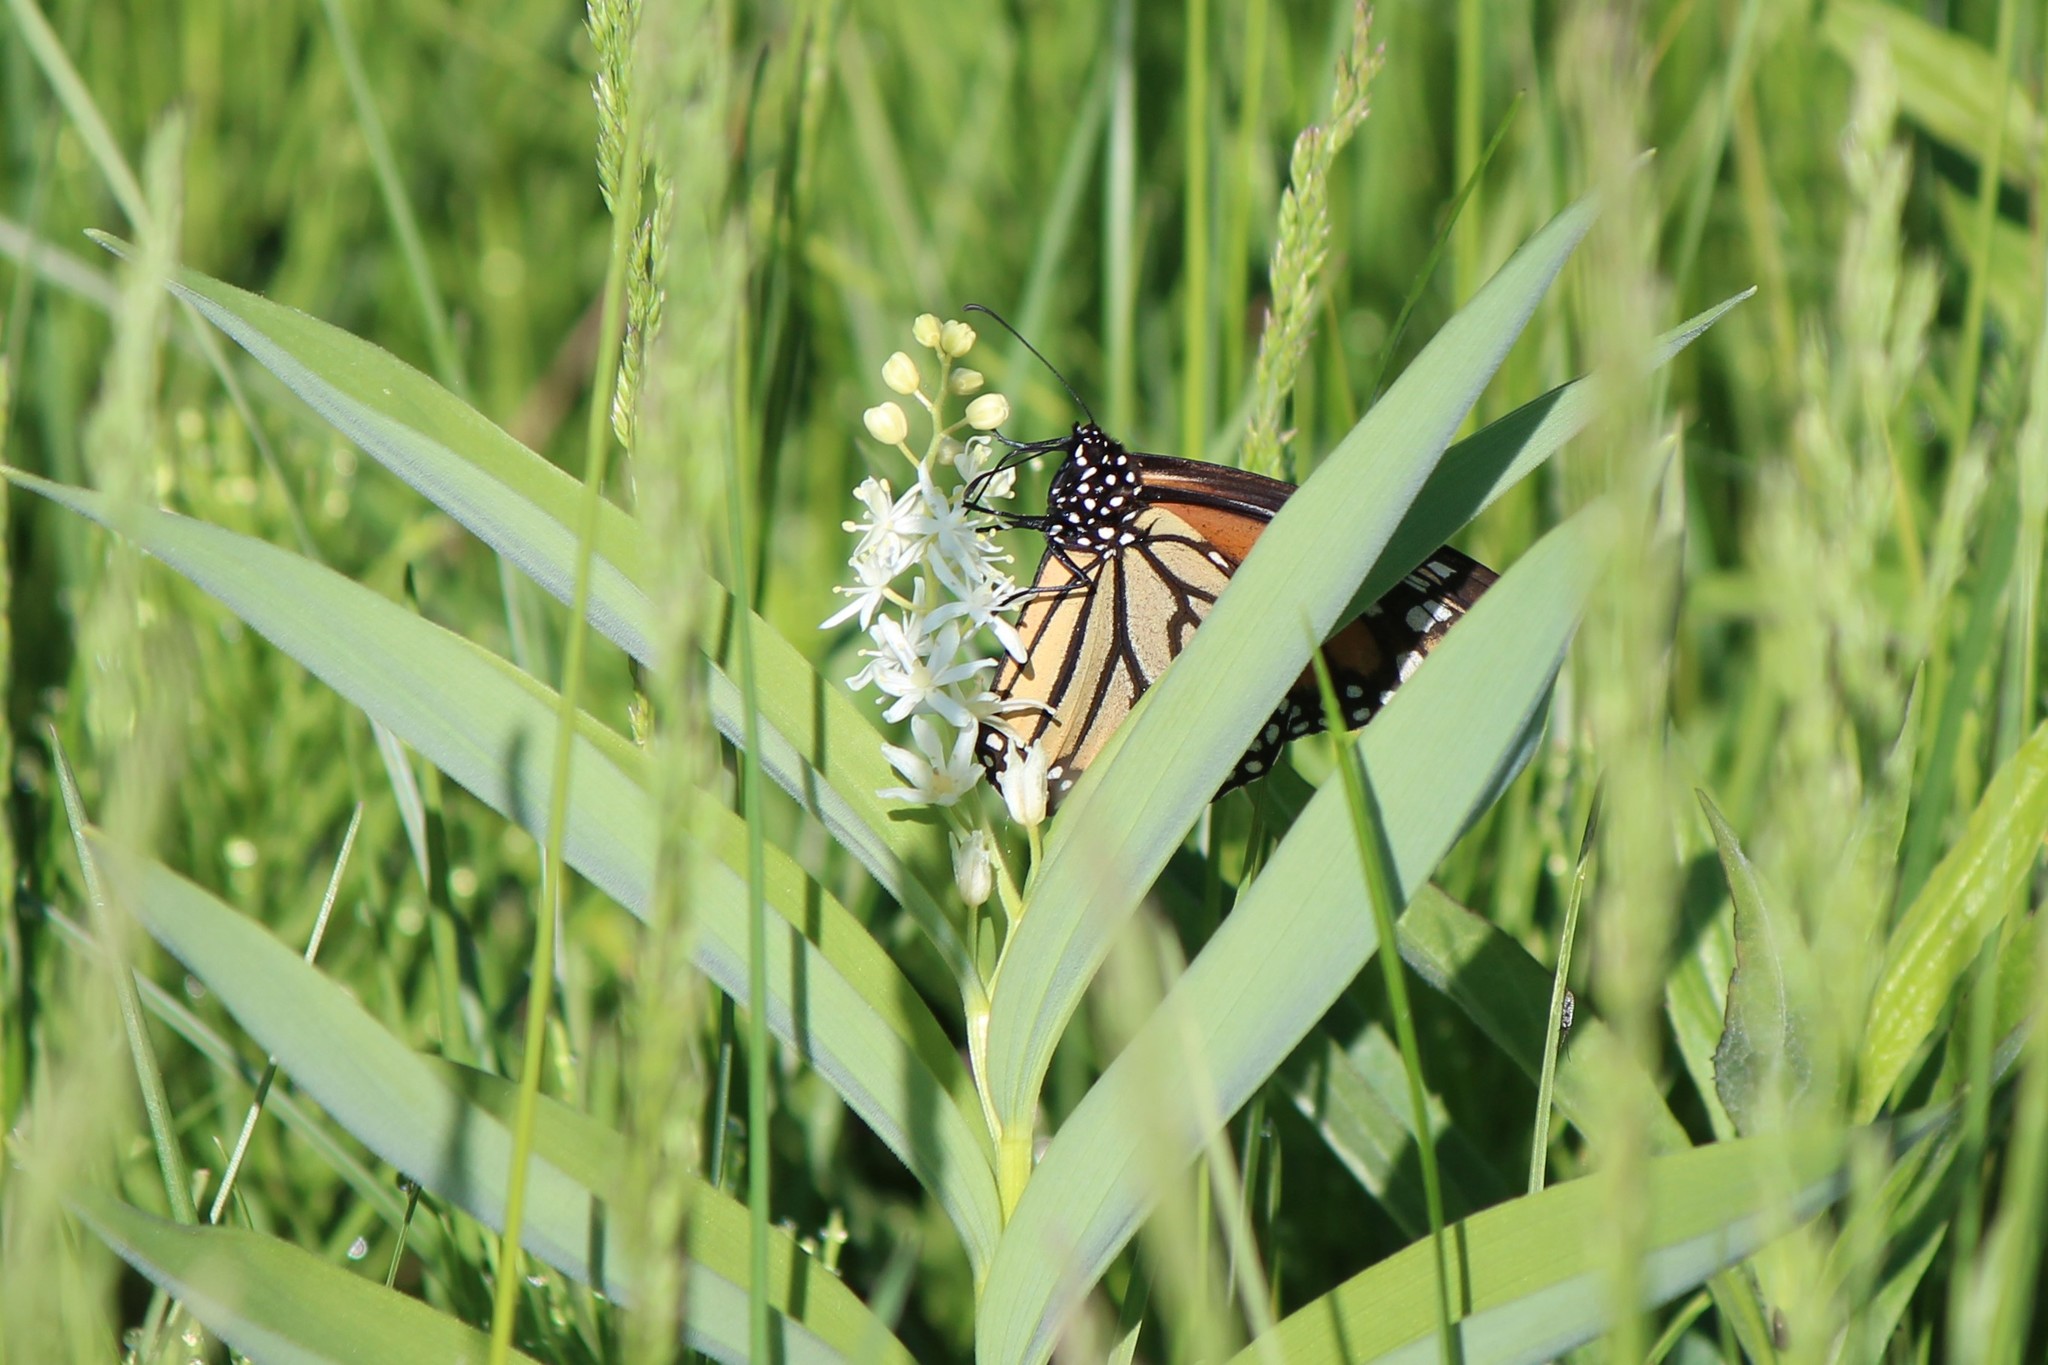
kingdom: Animalia
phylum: Arthropoda
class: Insecta
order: Lepidoptera
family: Nymphalidae
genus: Danaus
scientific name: Danaus plexippus
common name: Monarch
